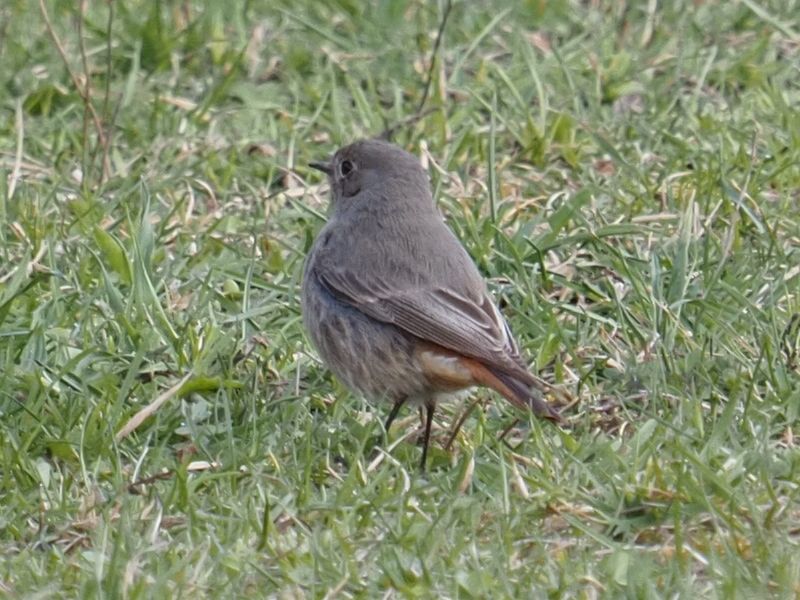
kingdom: Animalia
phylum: Chordata
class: Aves
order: Passeriformes
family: Muscicapidae
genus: Phoenicurus
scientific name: Phoenicurus ochruros
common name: Black redstart
